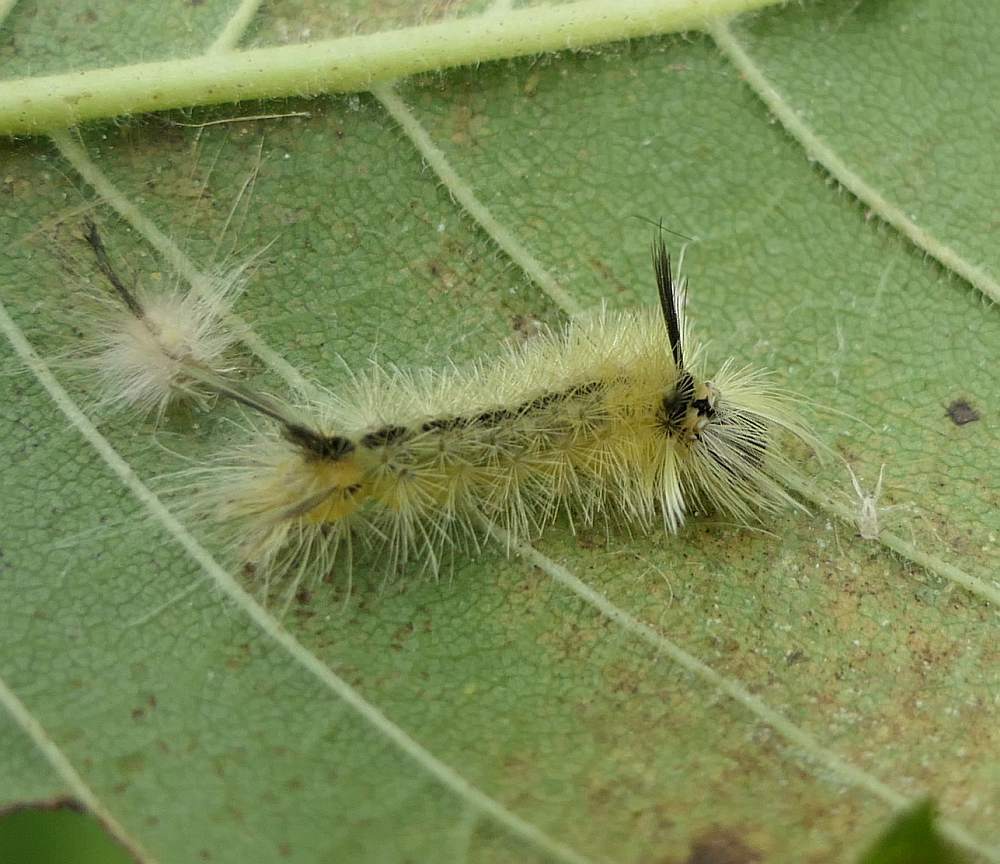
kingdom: Animalia
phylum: Arthropoda
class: Insecta
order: Lepidoptera
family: Erebidae
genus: Halysidota
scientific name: Halysidota tessellaris
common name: Banded tussock moth
